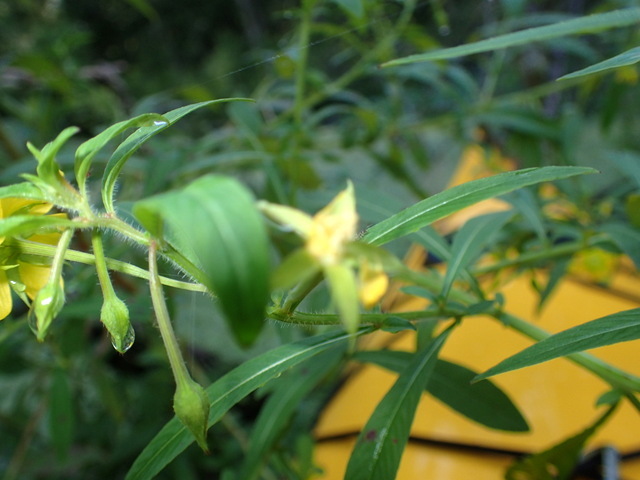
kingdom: Plantae
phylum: Tracheophyta
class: Magnoliopsida
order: Myrtales
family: Onagraceae
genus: Ludwigia
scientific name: Ludwigia leptocarpa
